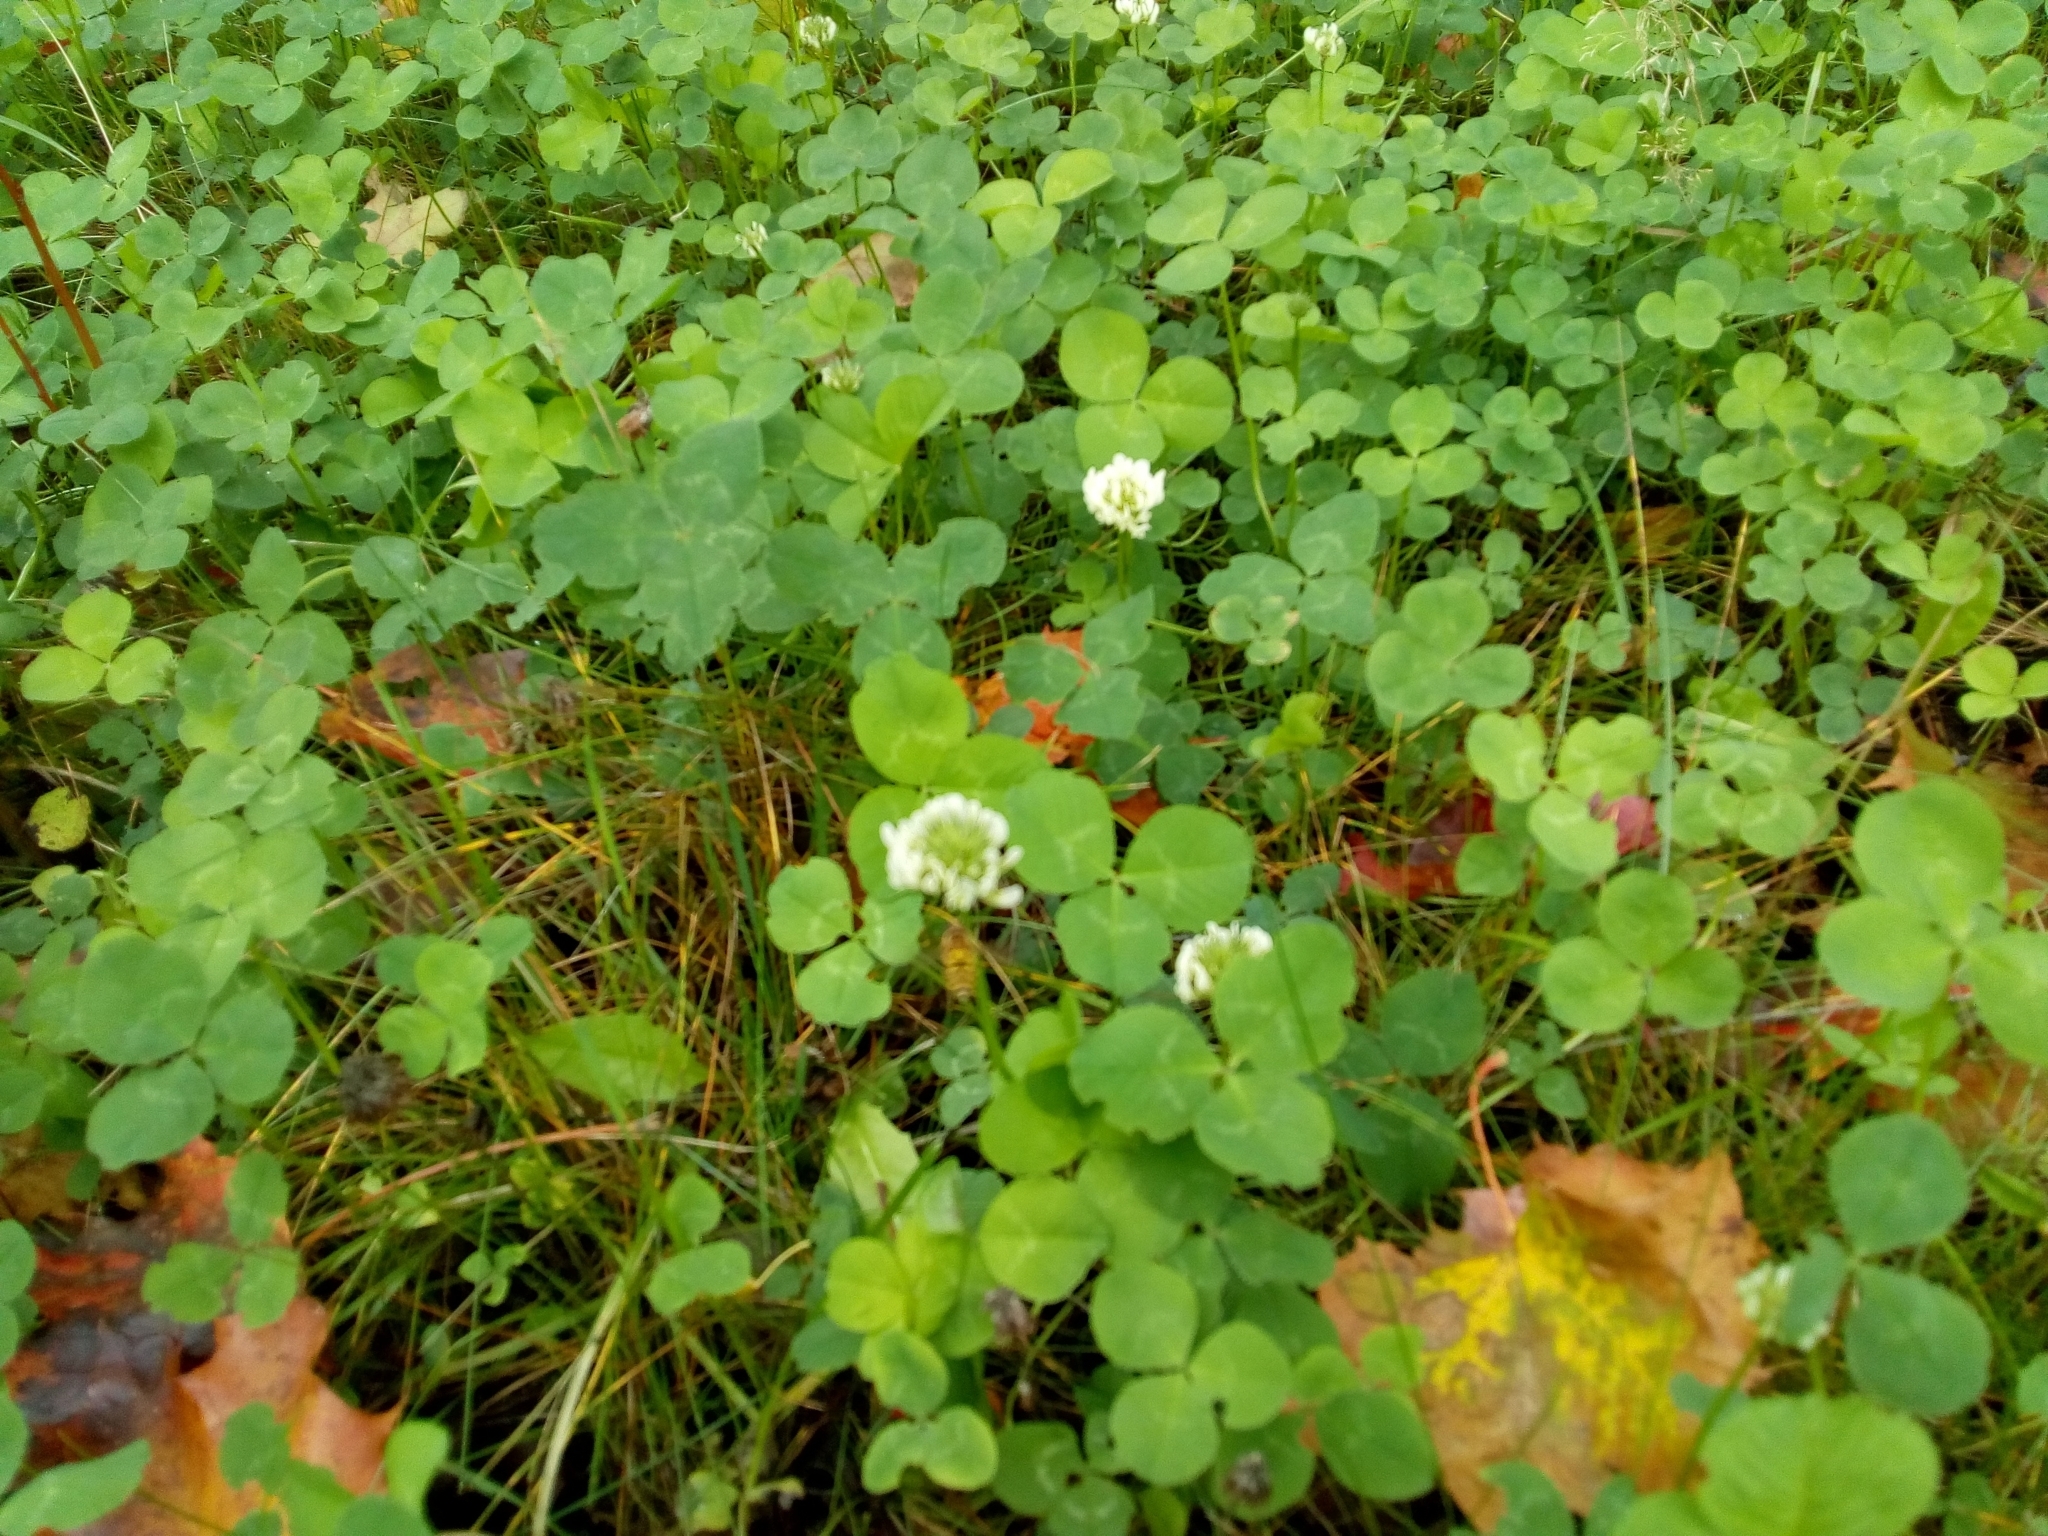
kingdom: Plantae
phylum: Tracheophyta
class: Magnoliopsida
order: Fabales
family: Fabaceae
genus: Trifolium
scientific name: Trifolium repens
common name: White clover
